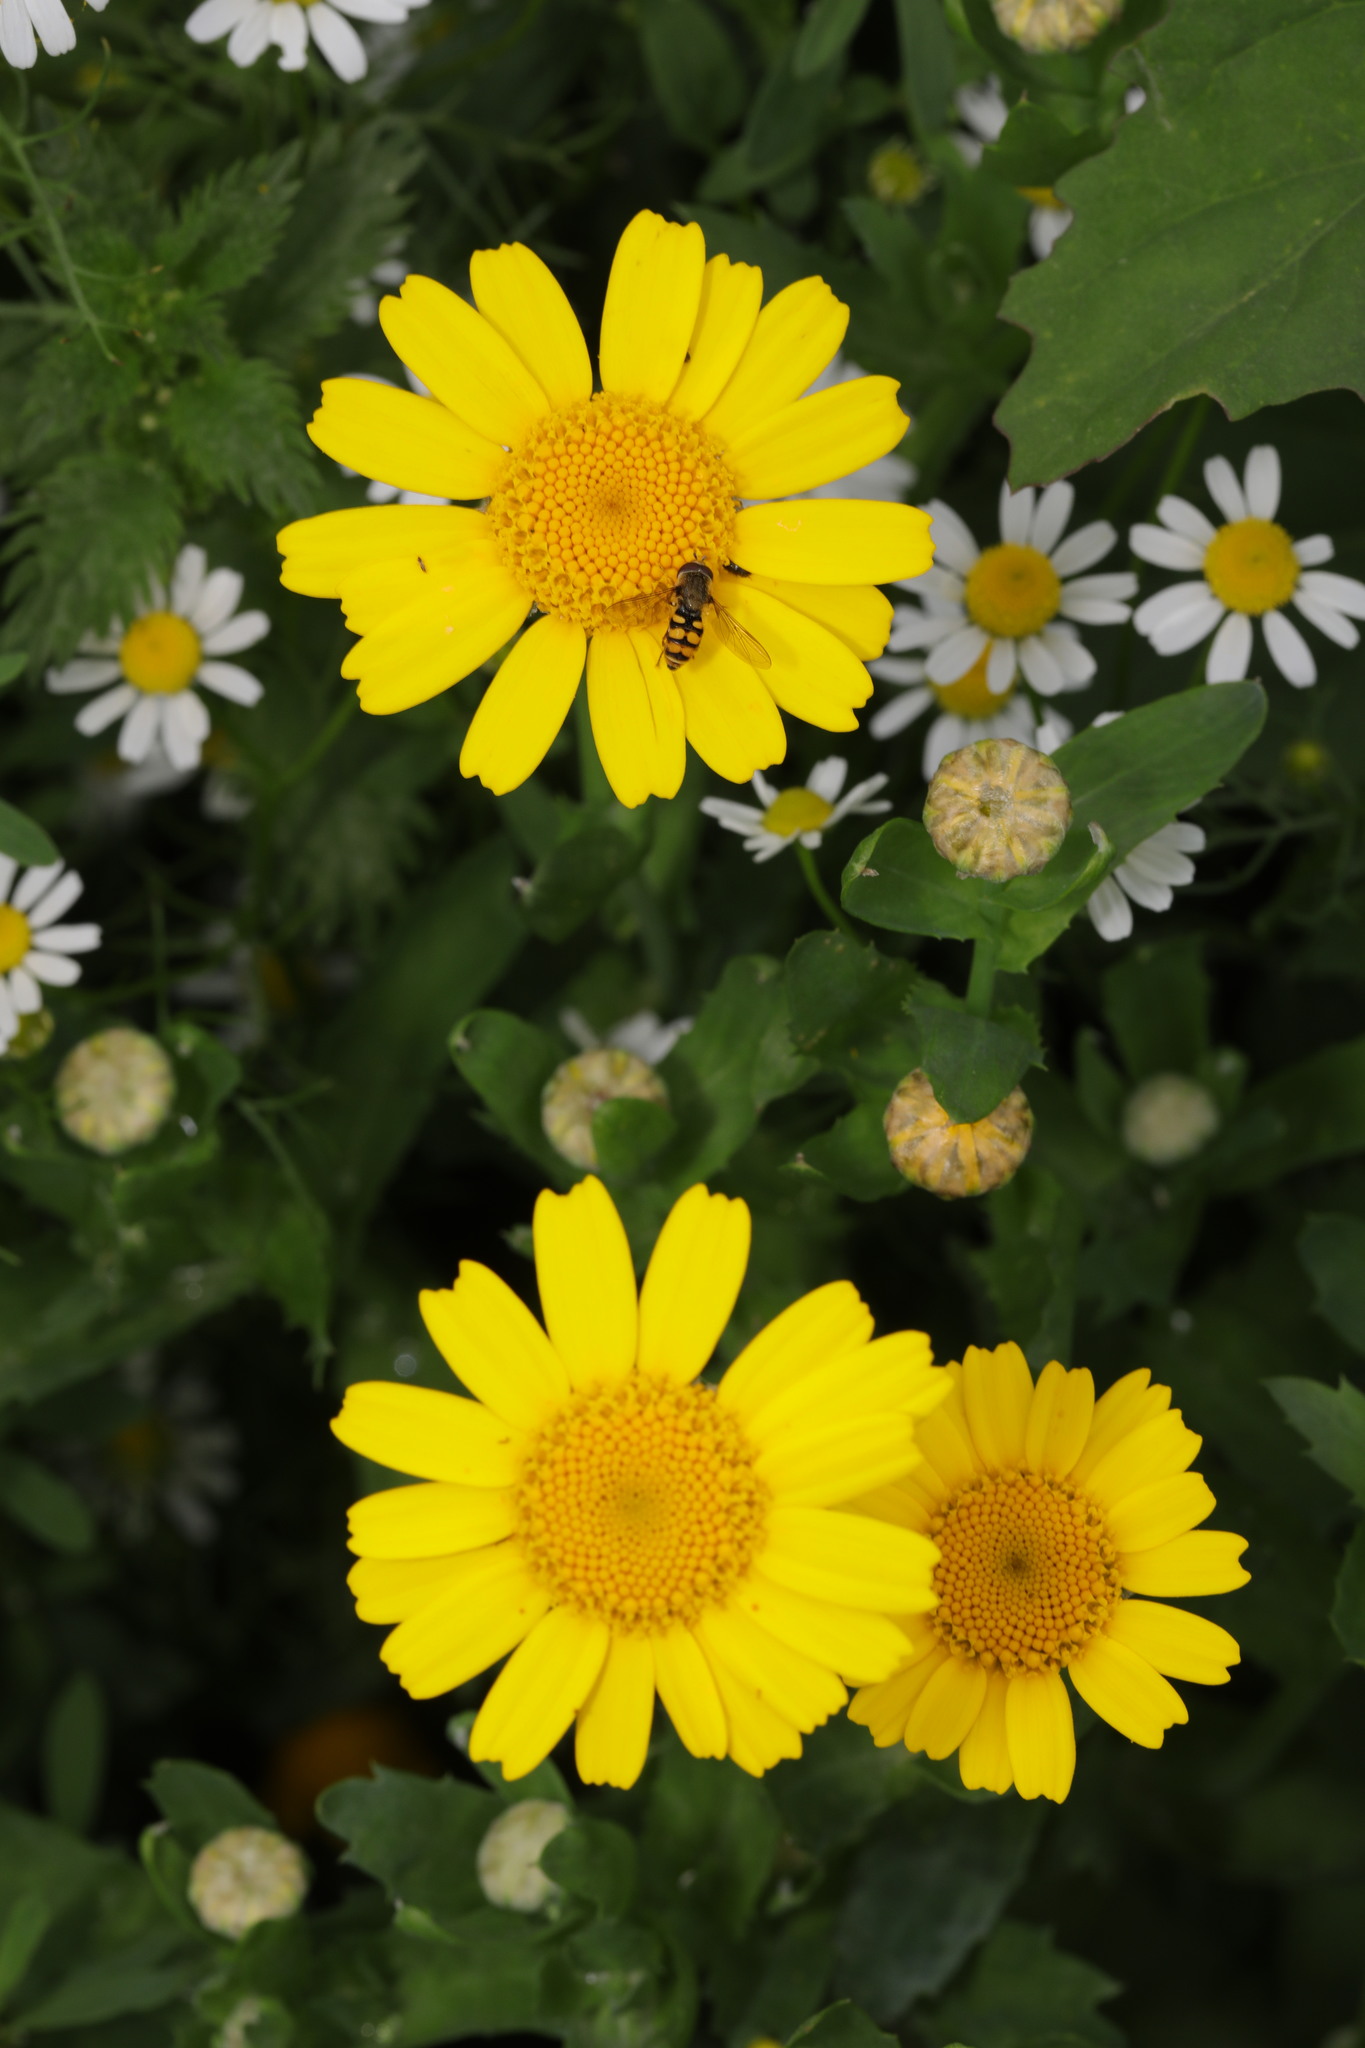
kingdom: Plantae
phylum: Tracheophyta
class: Magnoliopsida
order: Asterales
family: Asteraceae
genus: Glebionis
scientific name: Glebionis segetum
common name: Corndaisy
